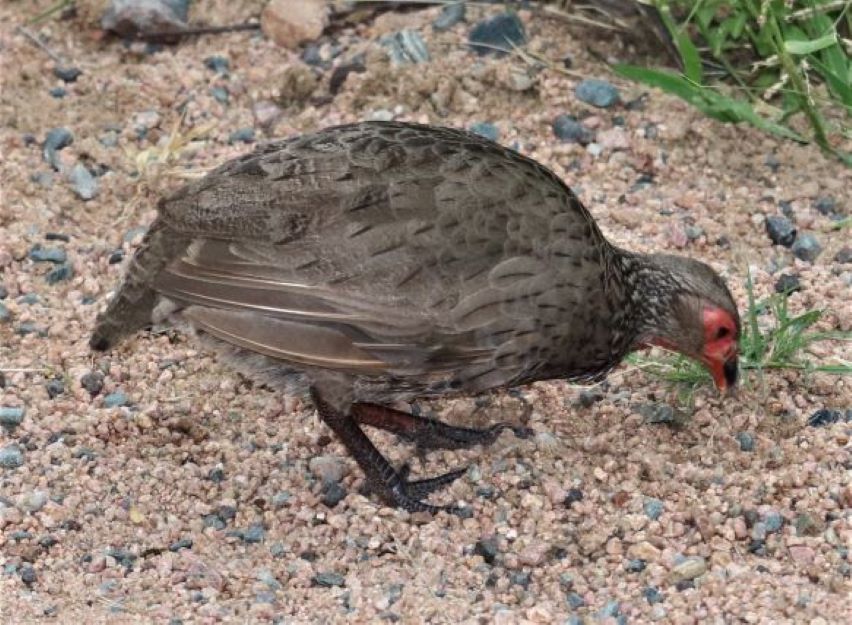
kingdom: Animalia
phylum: Chordata
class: Aves
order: Galliformes
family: Phasianidae
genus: Pternistis
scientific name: Pternistis swainsonii
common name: Swainson's spurfowl
